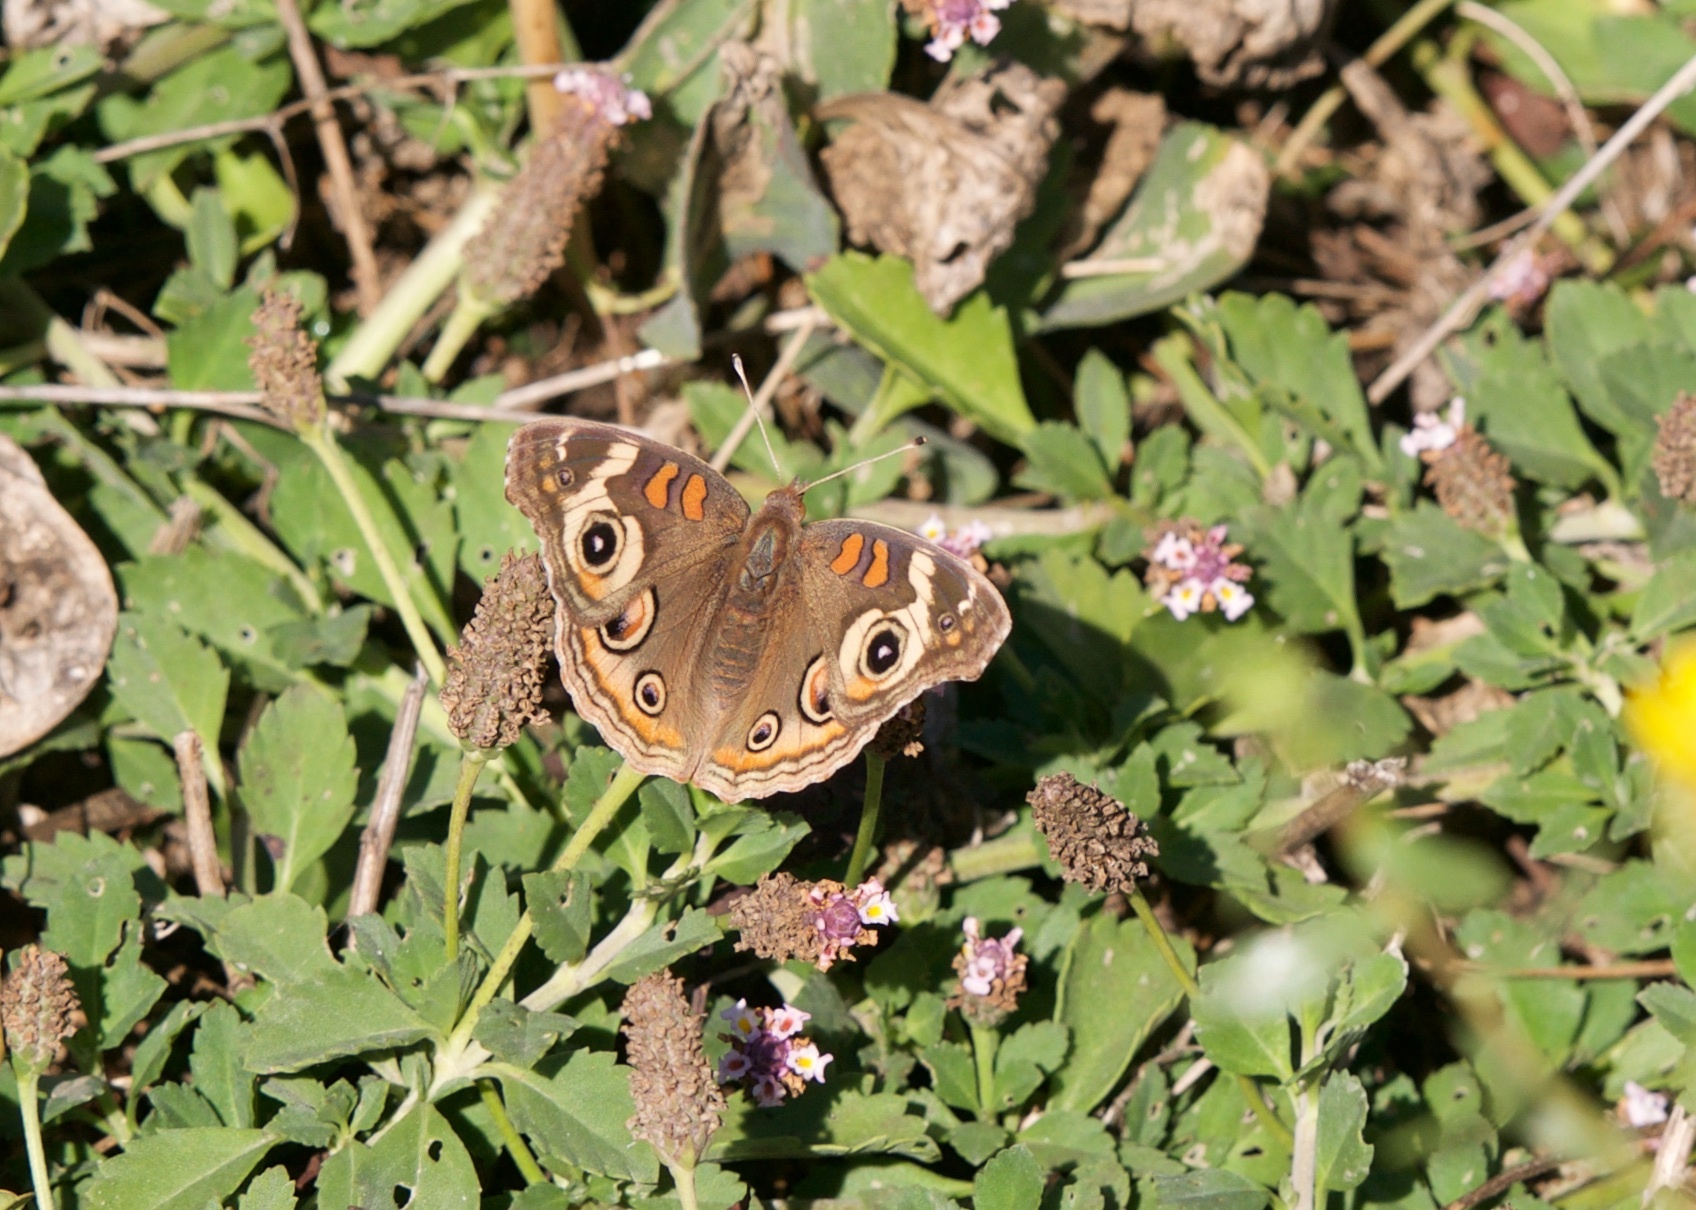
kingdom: Animalia
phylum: Arthropoda
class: Insecta
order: Lepidoptera
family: Nymphalidae
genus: Junonia
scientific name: Junonia grisea
